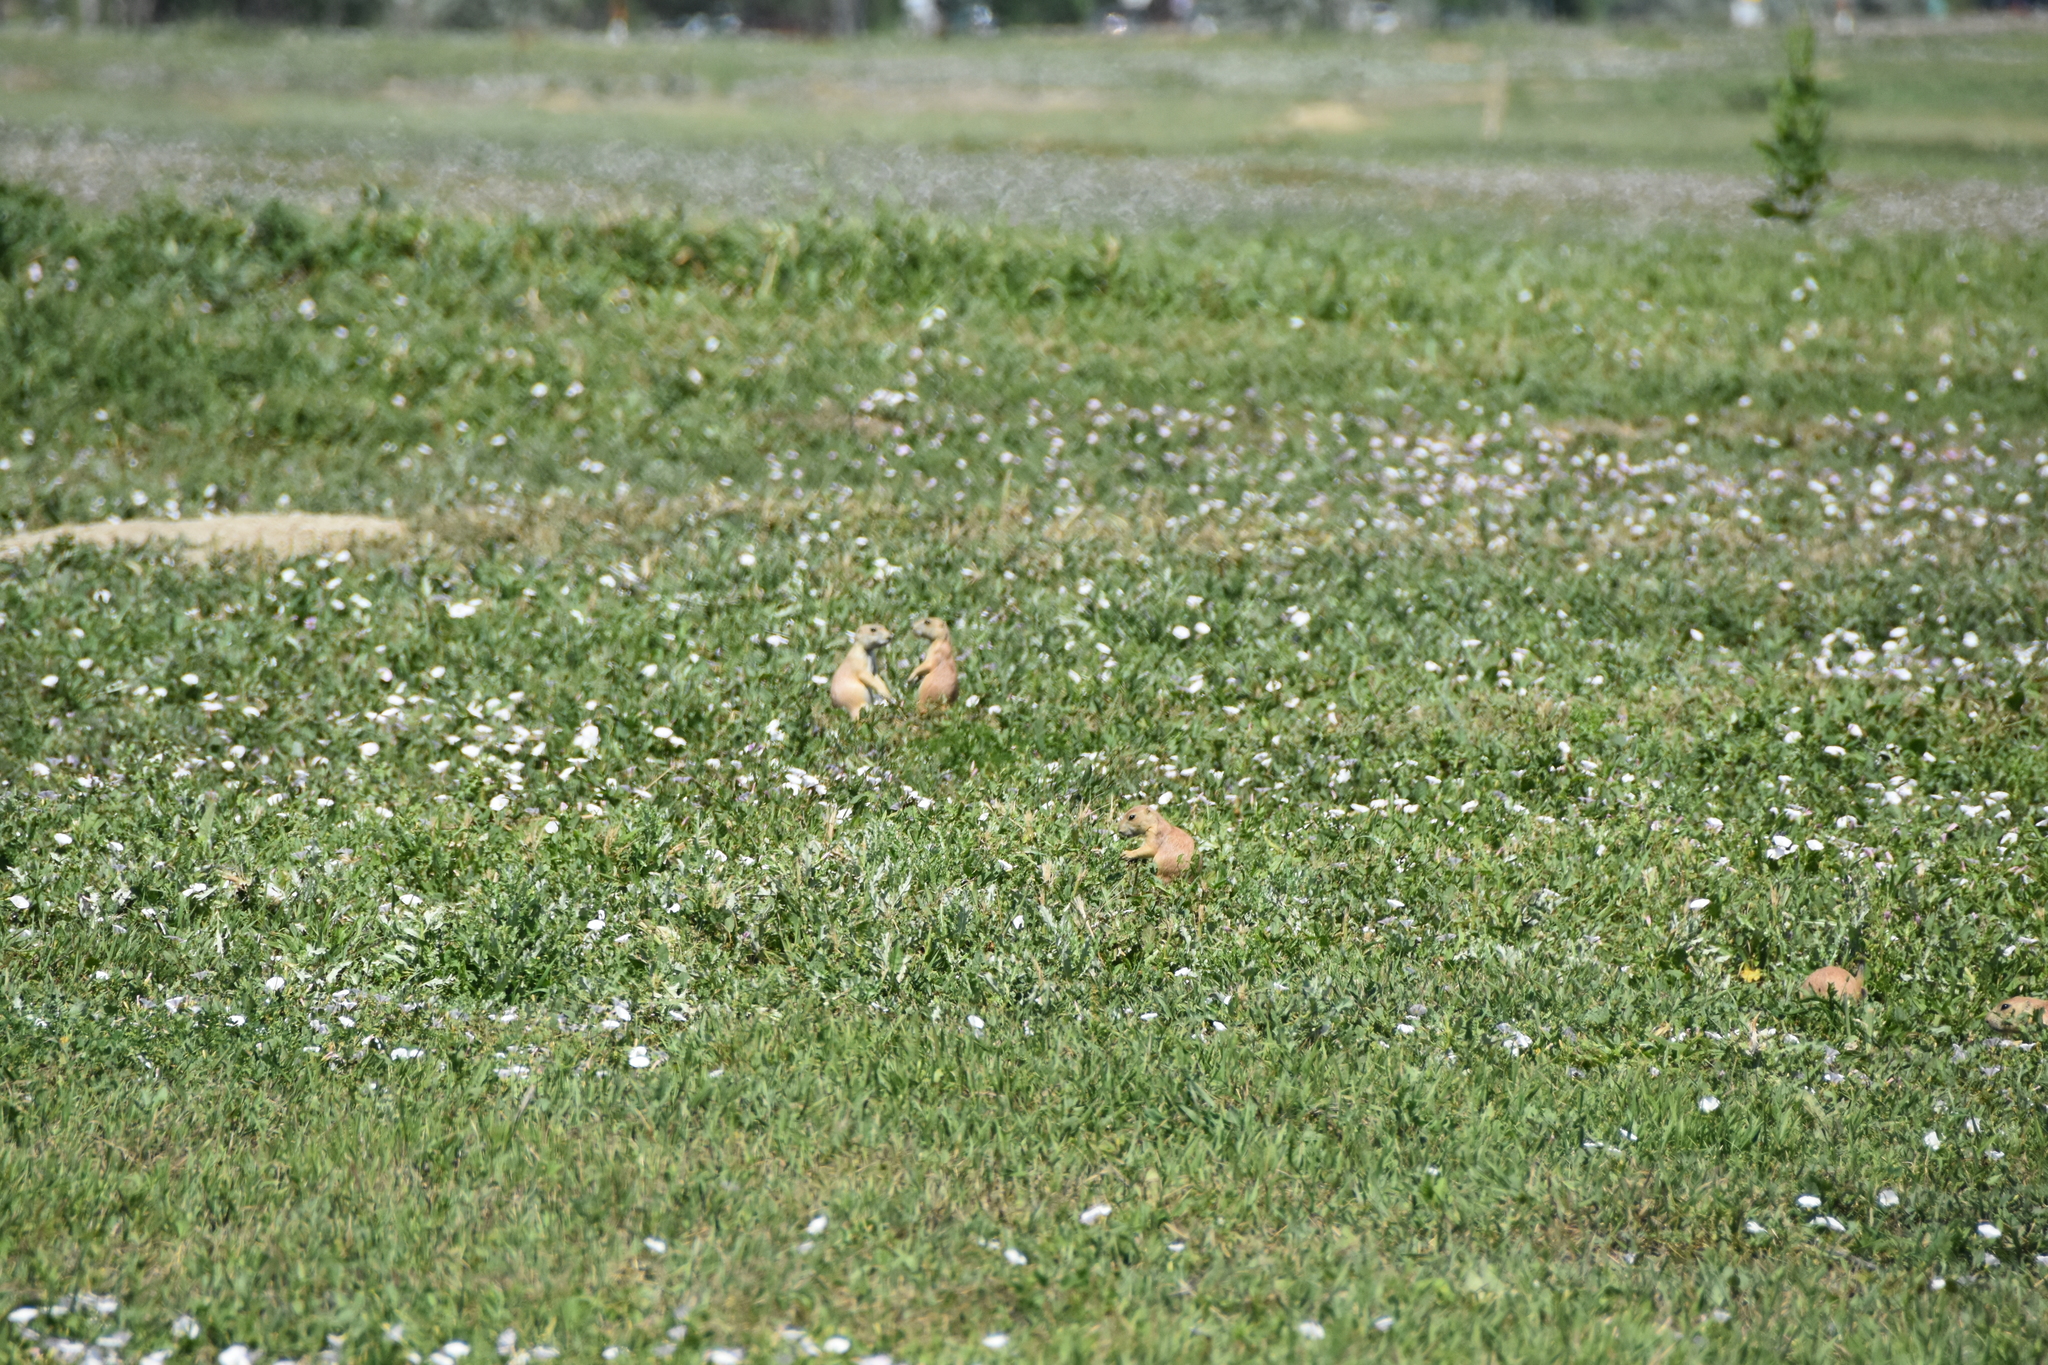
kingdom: Animalia
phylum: Chordata
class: Mammalia
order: Rodentia
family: Sciuridae
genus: Cynomys
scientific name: Cynomys ludovicianus
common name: Black-tailed prairie dog
